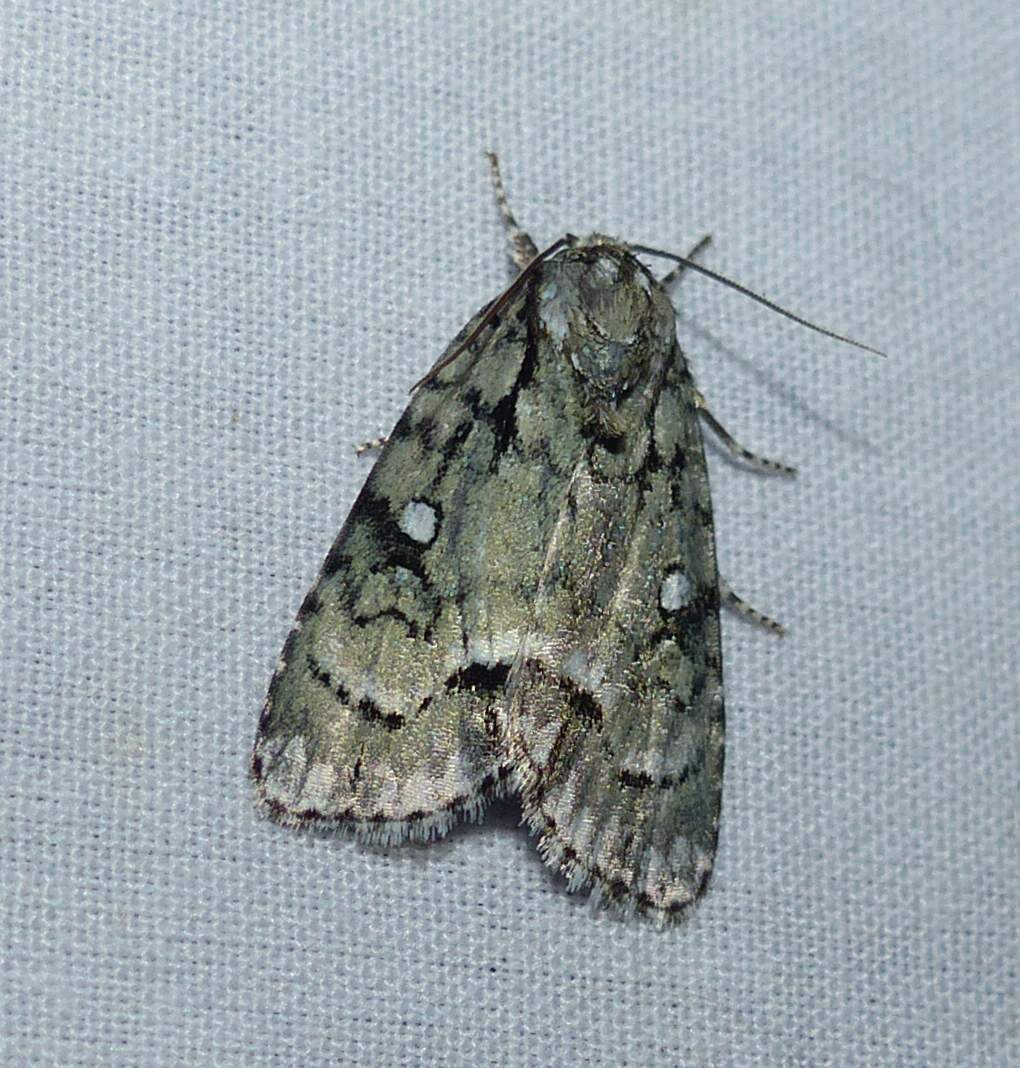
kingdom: Animalia
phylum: Arthropoda
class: Insecta
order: Lepidoptera
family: Noctuidae
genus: Acronicta
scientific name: Acronicta vinnula
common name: Delightful dagger
